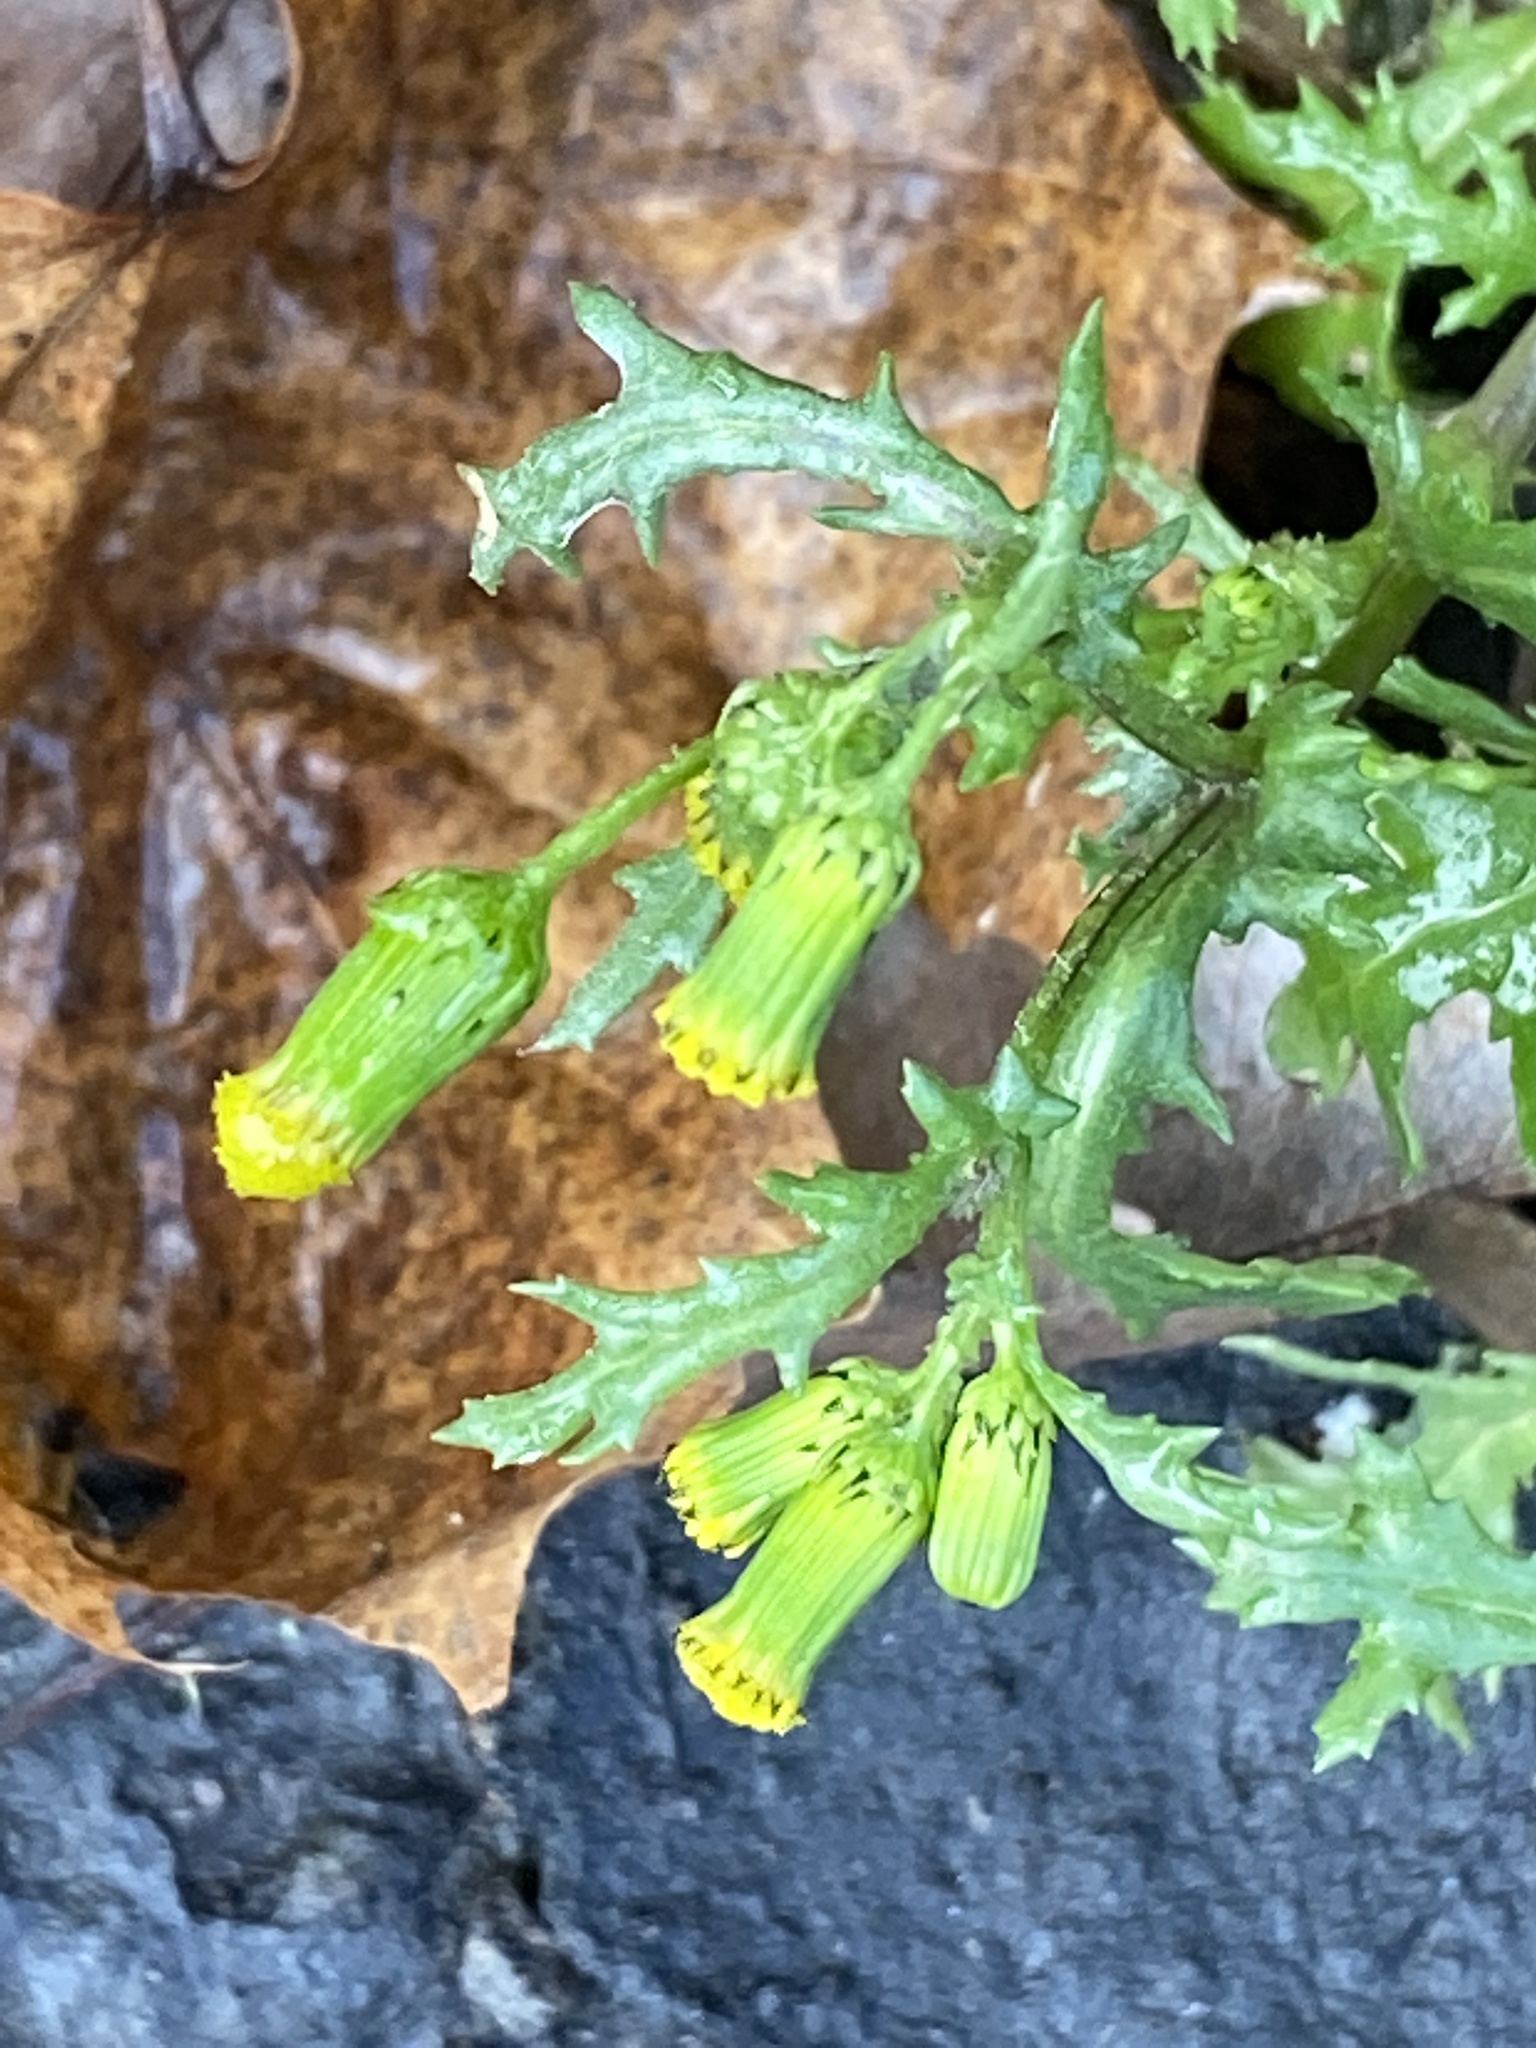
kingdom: Plantae
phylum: Tracheophyta
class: Magnoliopsida
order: Asterales
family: Asteraceae
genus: Senecio
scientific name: Senecio vulgaris
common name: Old-man-in-the-spring
